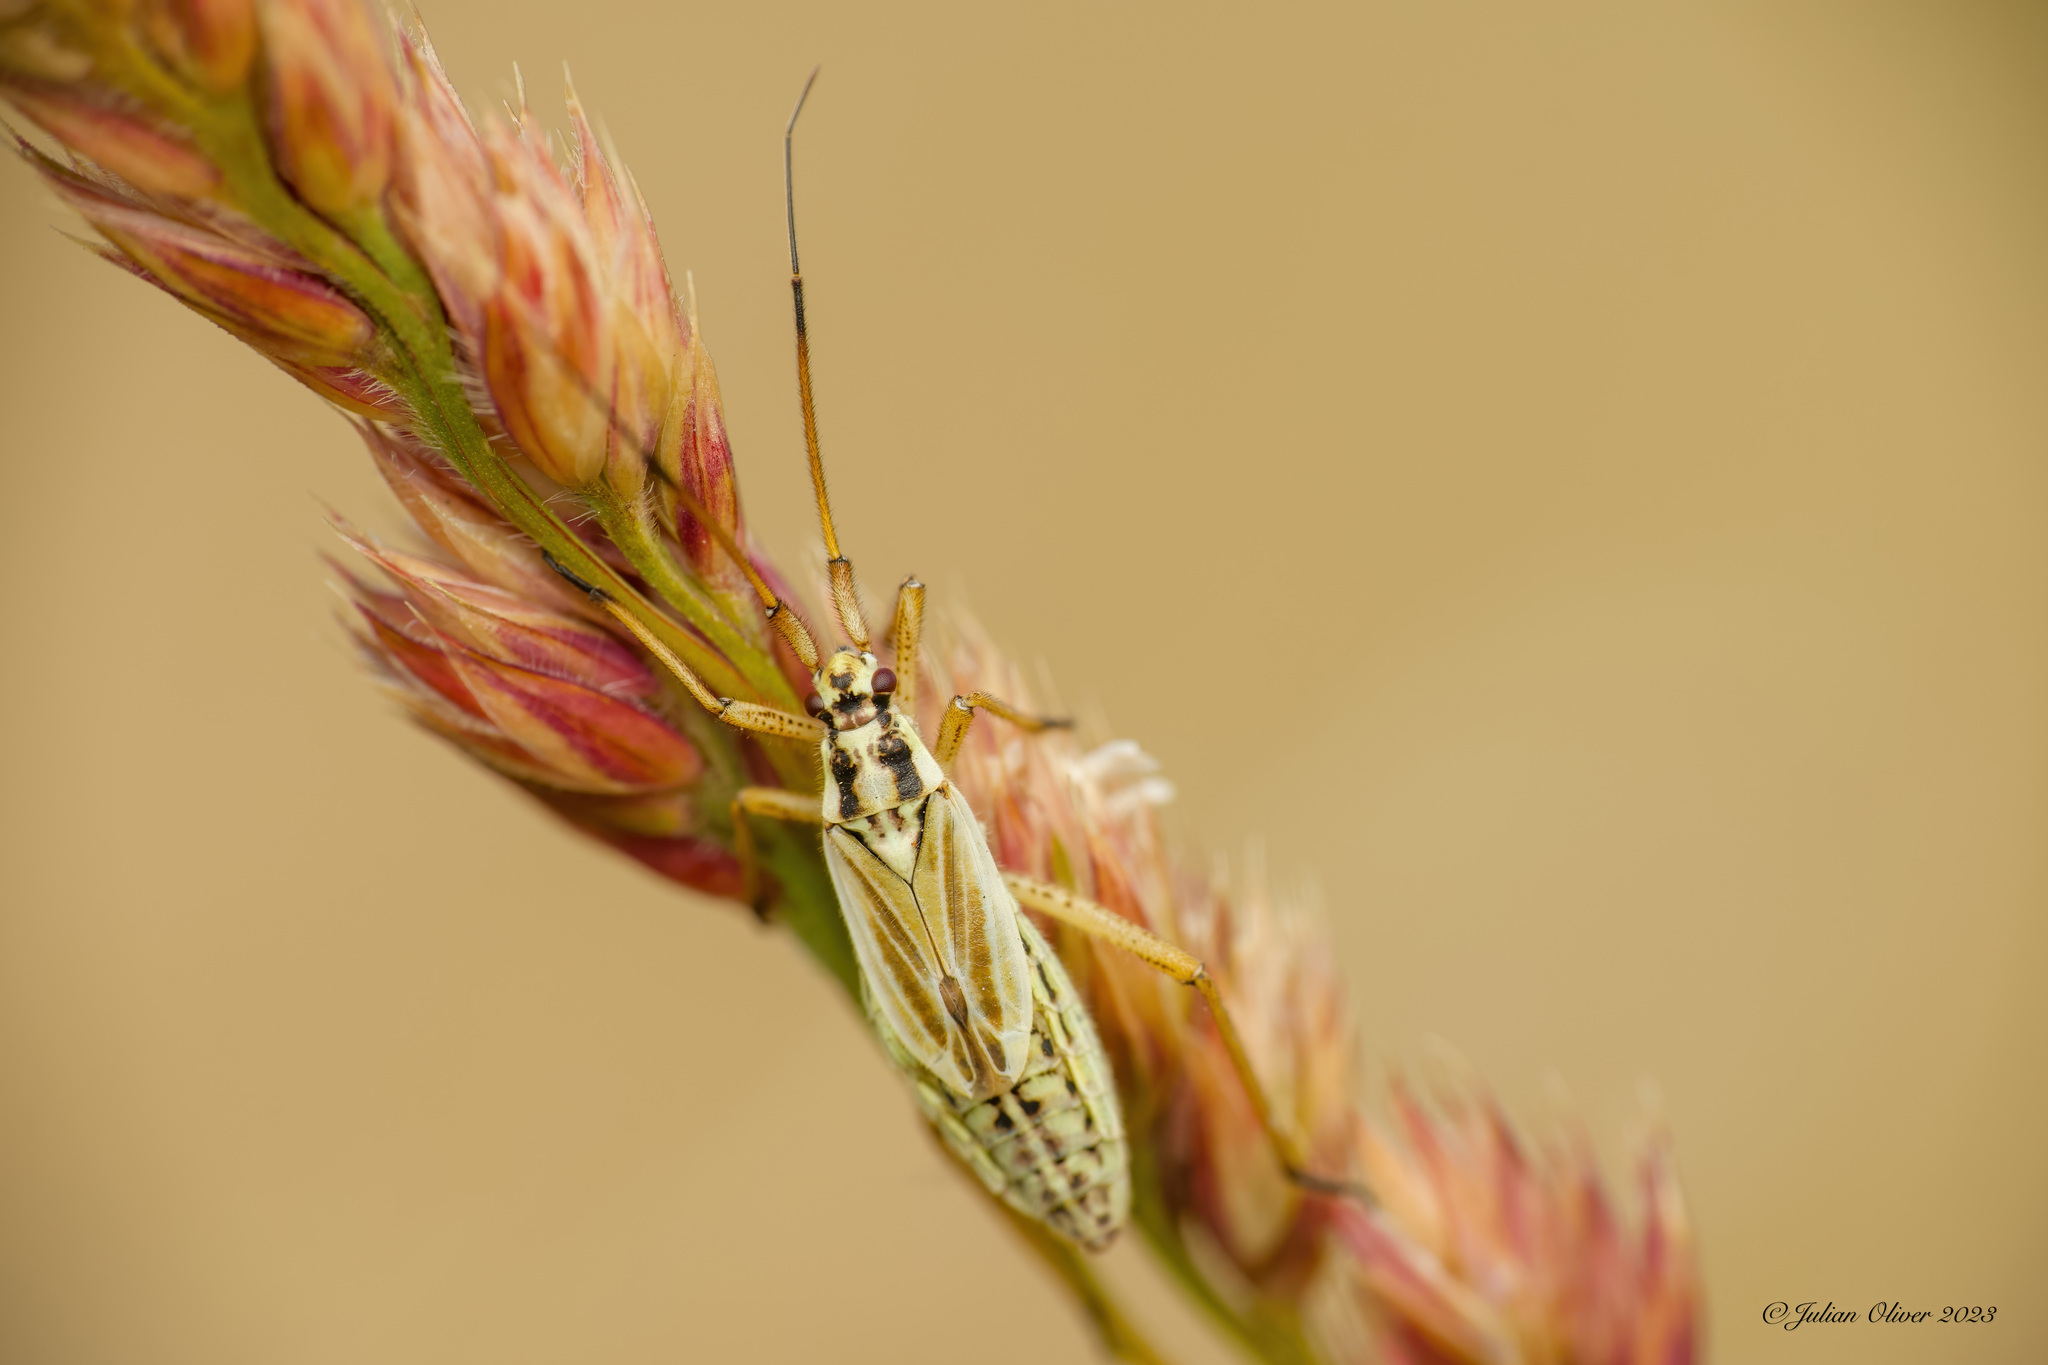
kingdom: Animalia
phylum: Arthropoda
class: Insecta
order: Hemiptera
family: Miridae
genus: Leptopterna
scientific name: Leptopterna dolabrata
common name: Meadow plant bug
